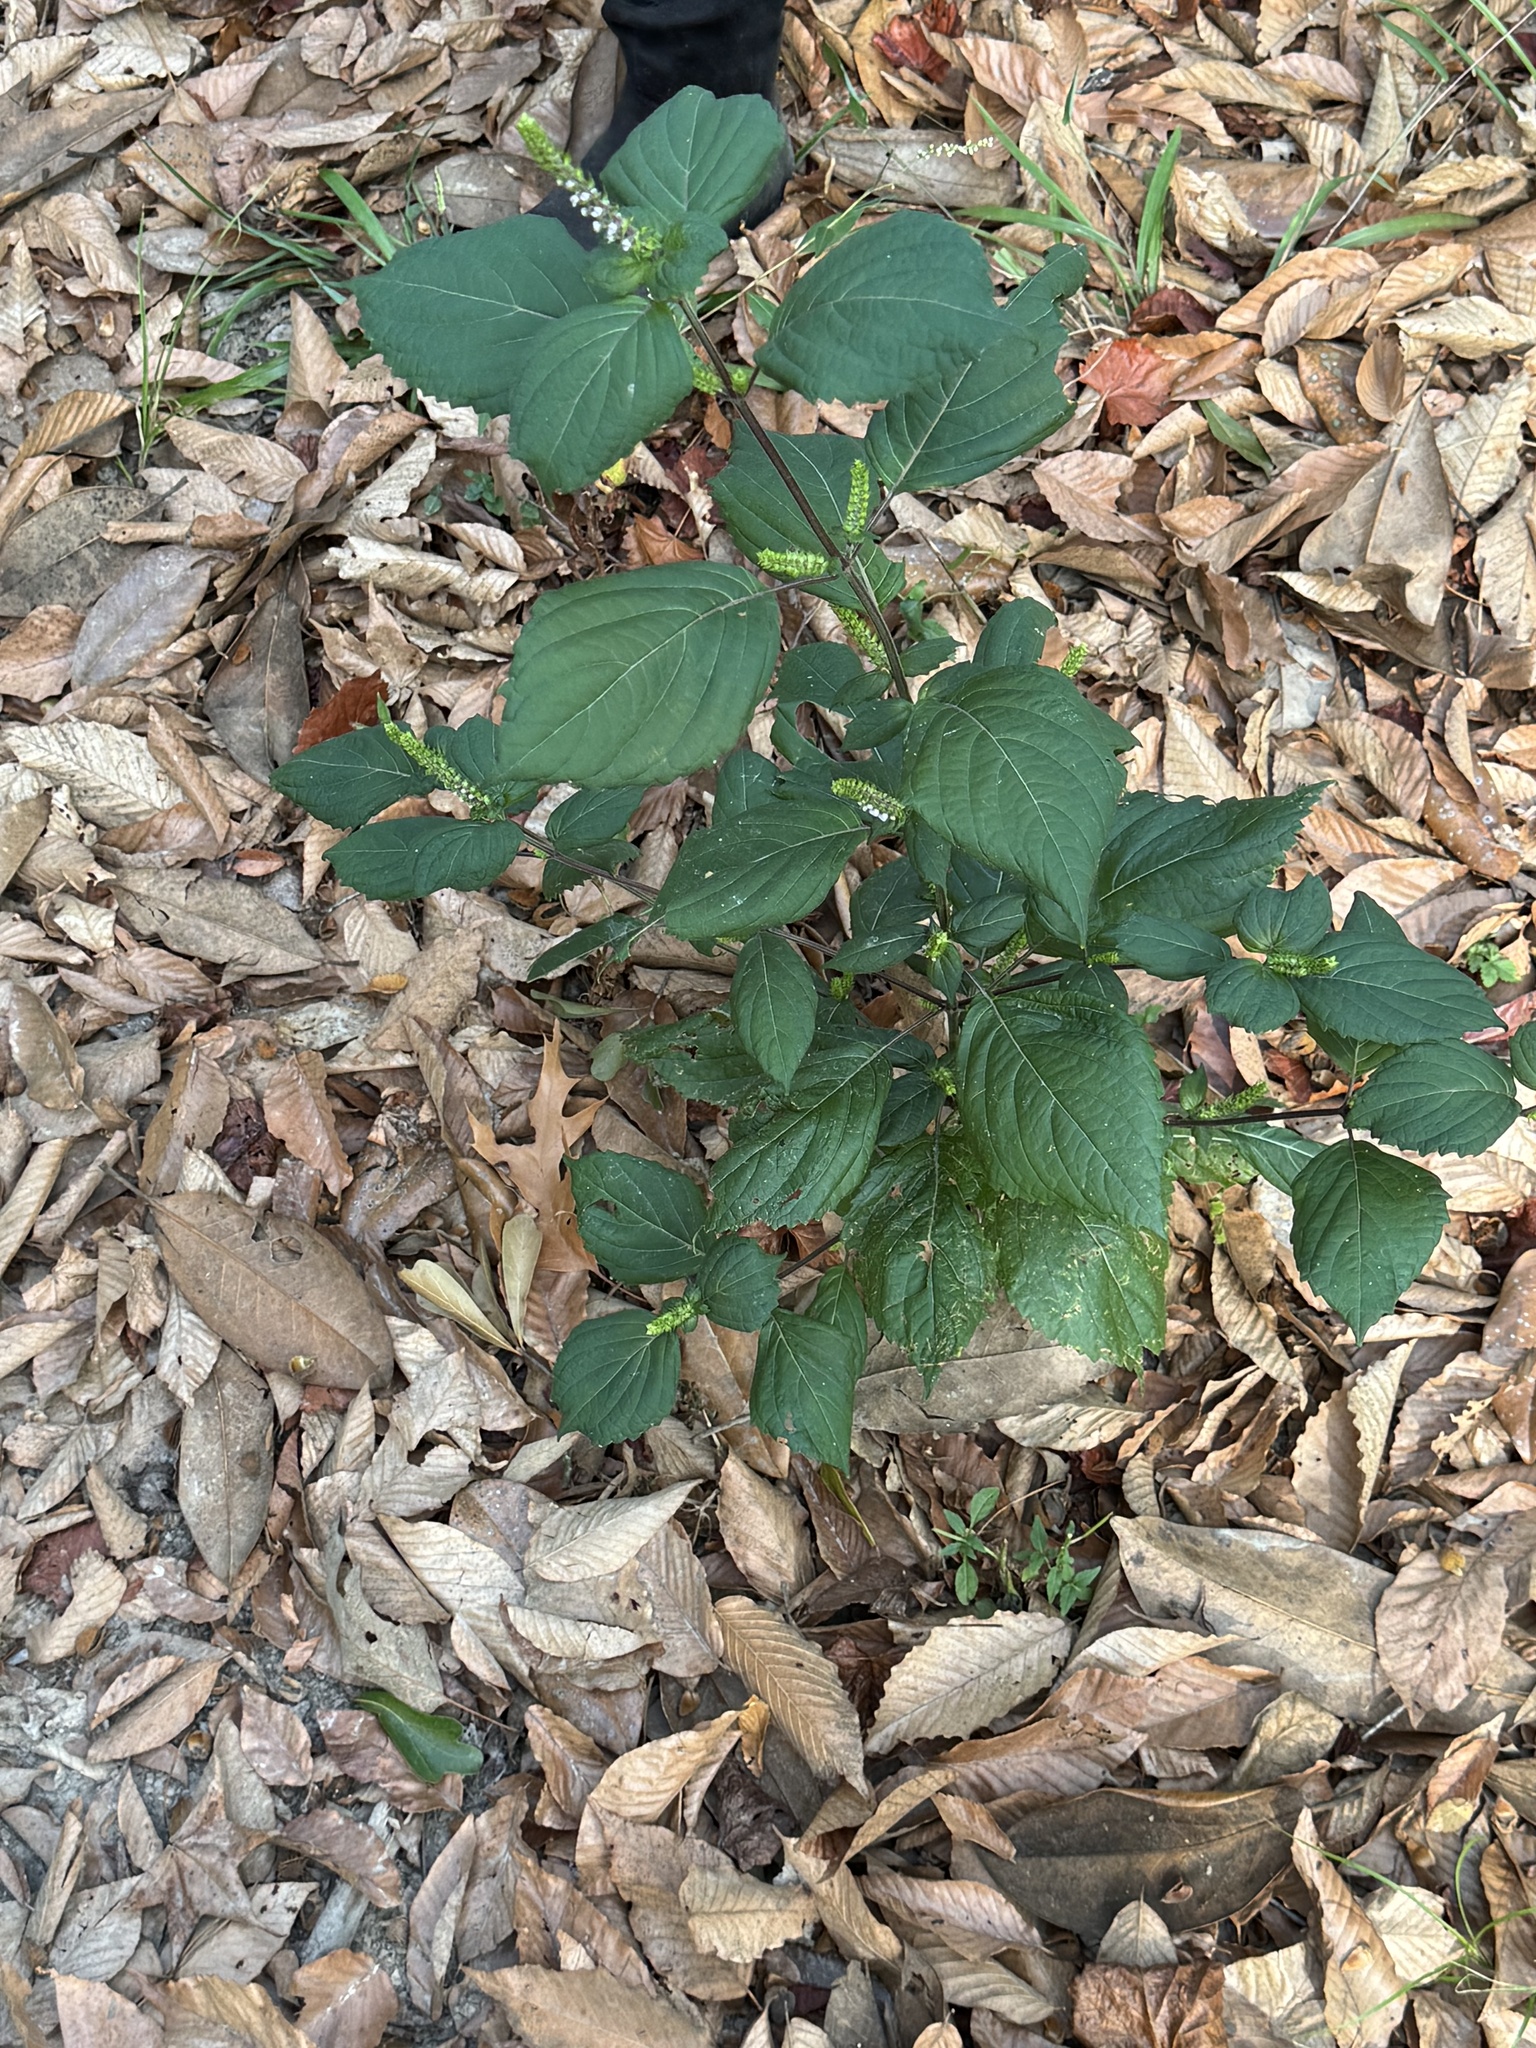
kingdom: Plantae
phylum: Tracheophyta
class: Magnoliopsida
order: Lamiales
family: Lamiaceae
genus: Perilla
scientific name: Perilla frutescens
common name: Perilla
